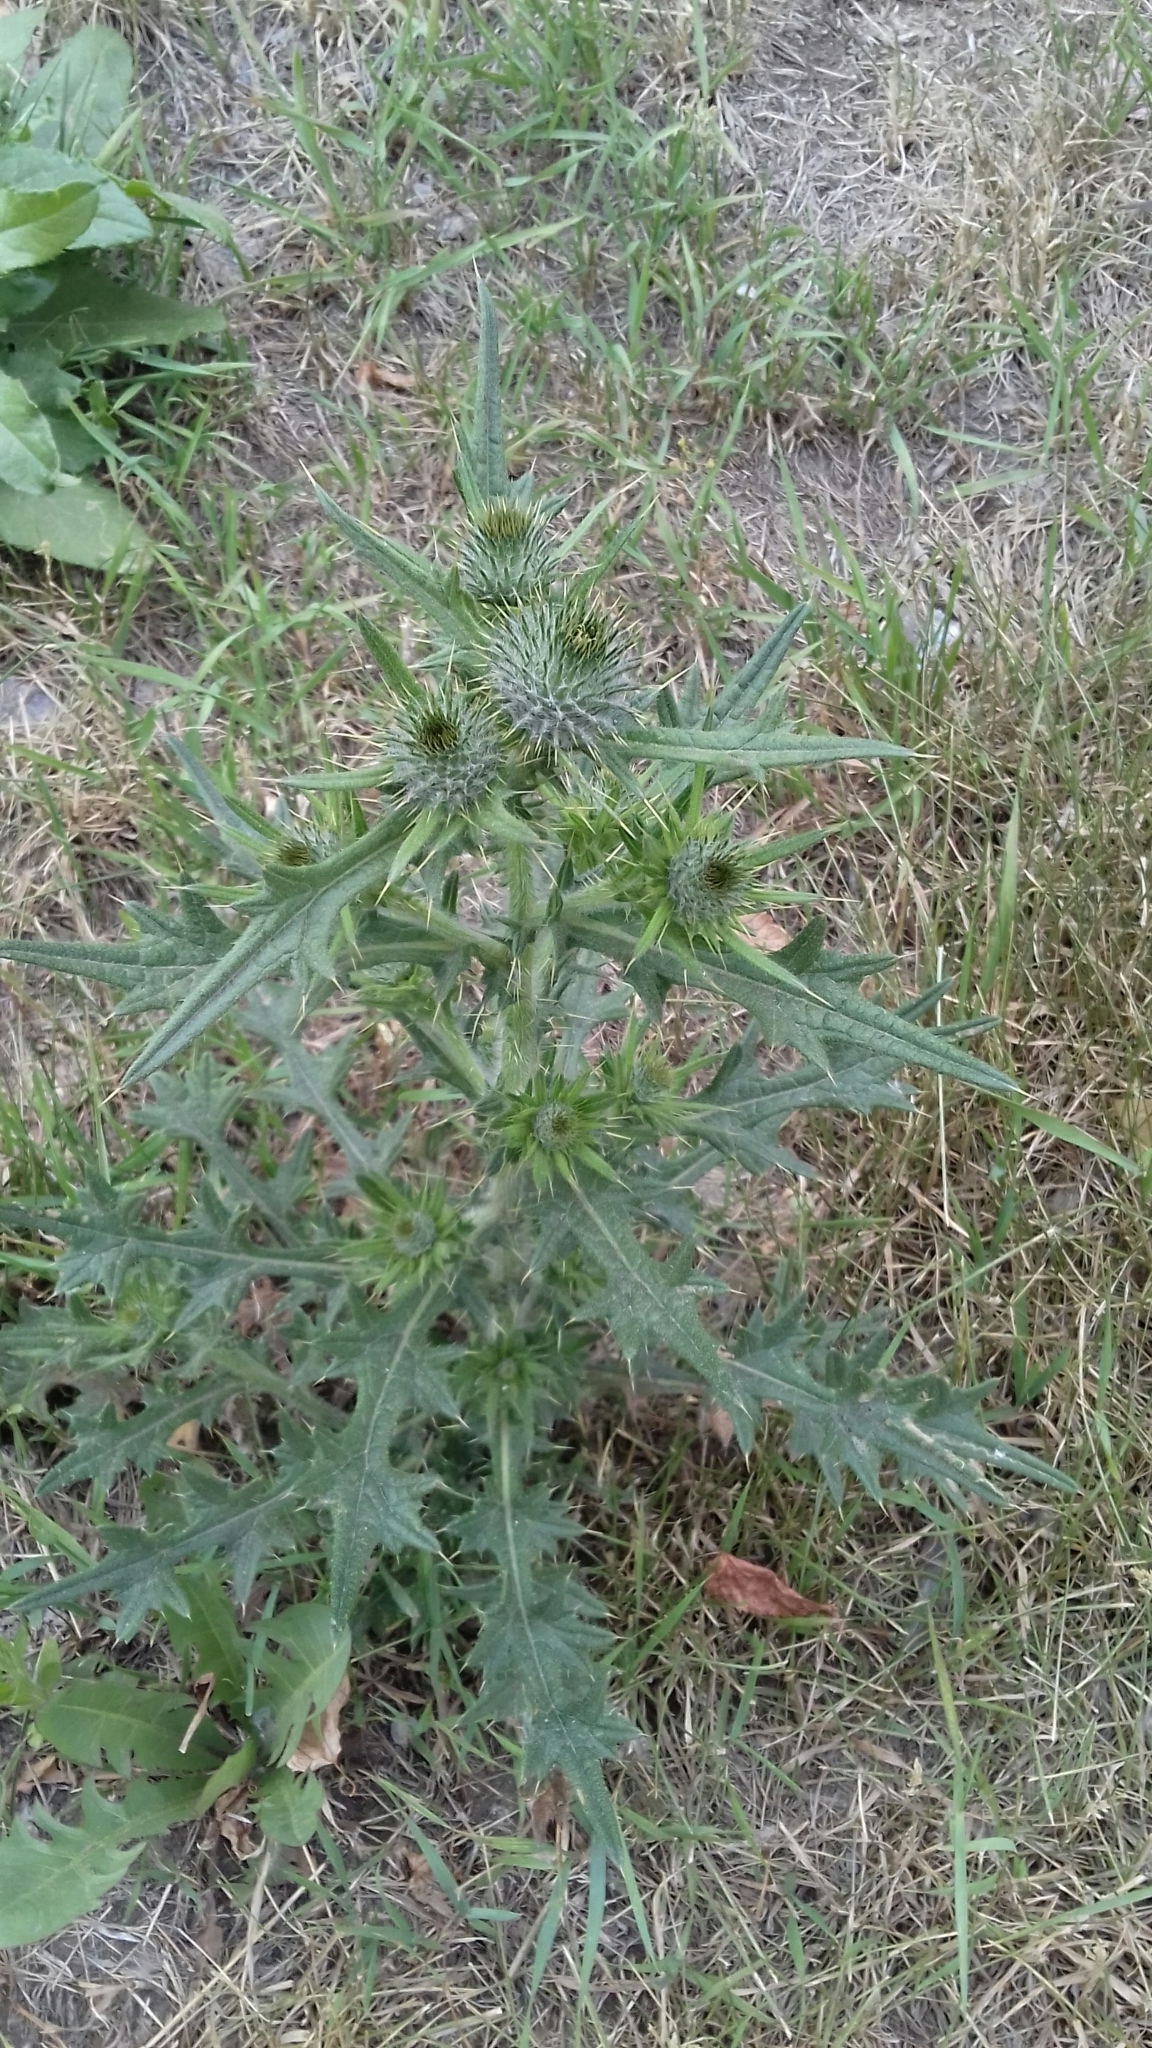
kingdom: Plantae
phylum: Tracheophyta
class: Magnoliopsida
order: Asterales
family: Asteraceae
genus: Cirsium
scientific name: Cirsium vulgare
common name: Bull thistle
